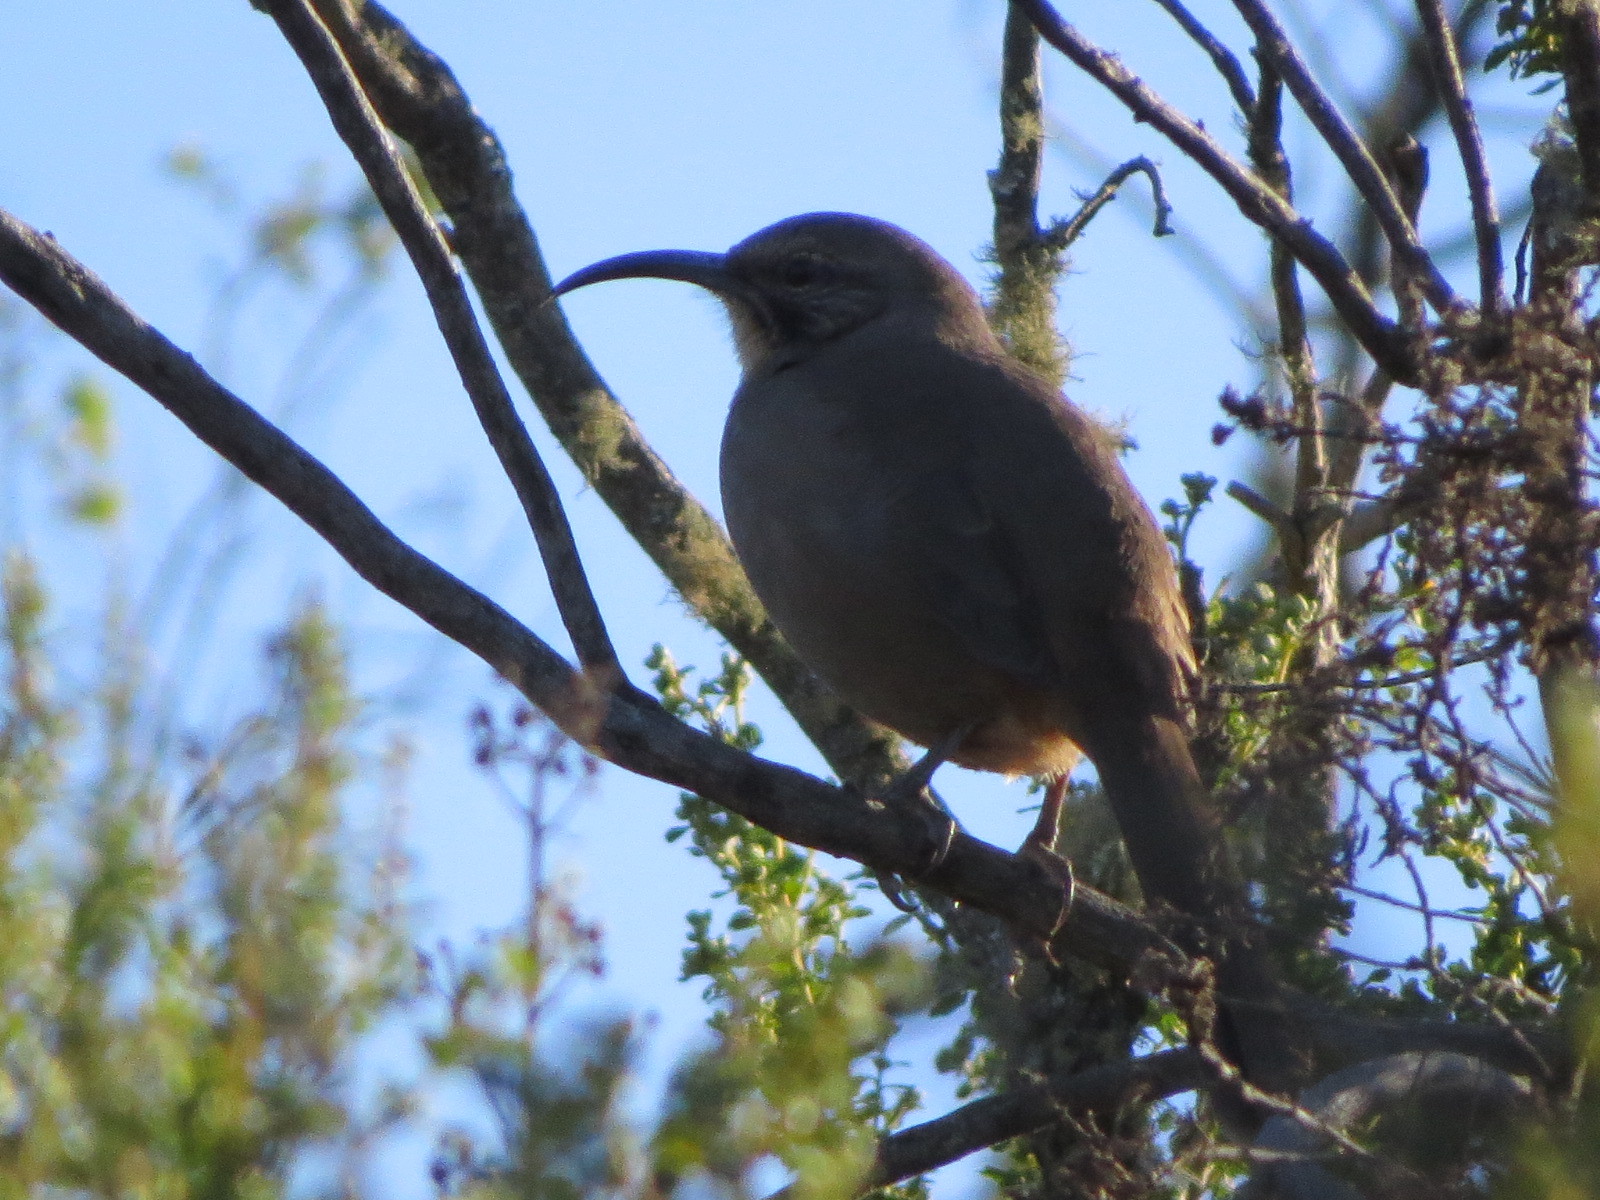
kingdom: Animalia
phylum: Chordata
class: Aves
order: Passeriformes
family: Mimidae
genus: Toxostoma
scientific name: Toxostoma redivivum
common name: California thrasher
